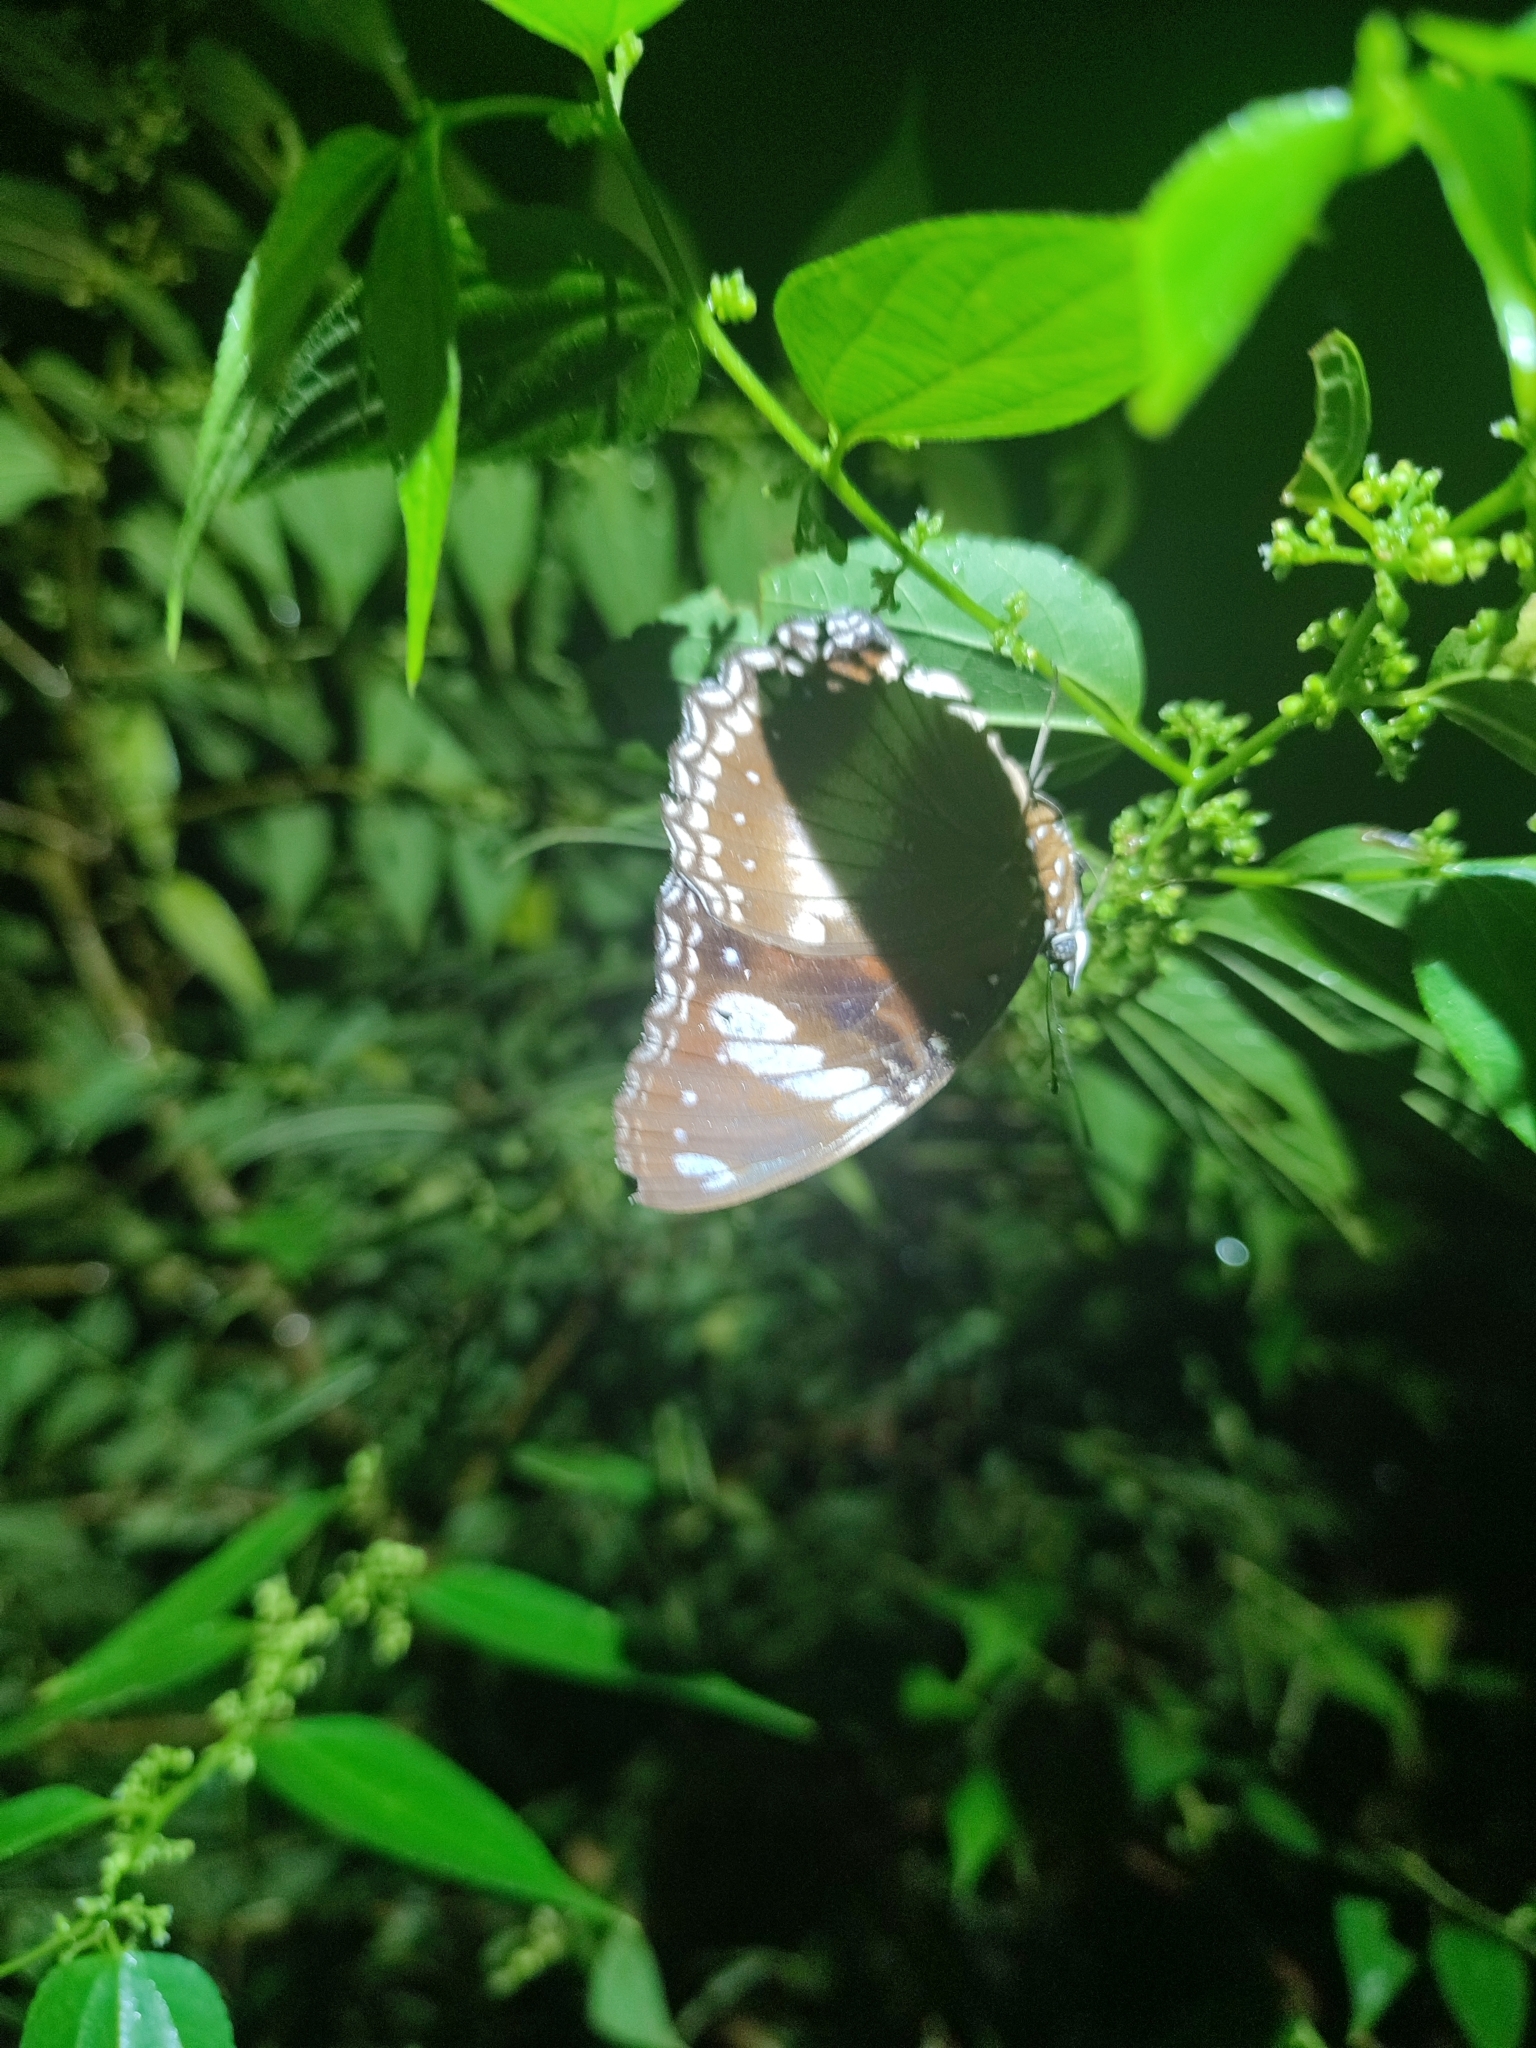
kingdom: Animalia
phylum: Arthropoda
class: Insecta
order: Lepidoptera
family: Nymphalidae
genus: Hypolimnas
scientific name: Hypolimnas bolina
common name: Great eggfly
